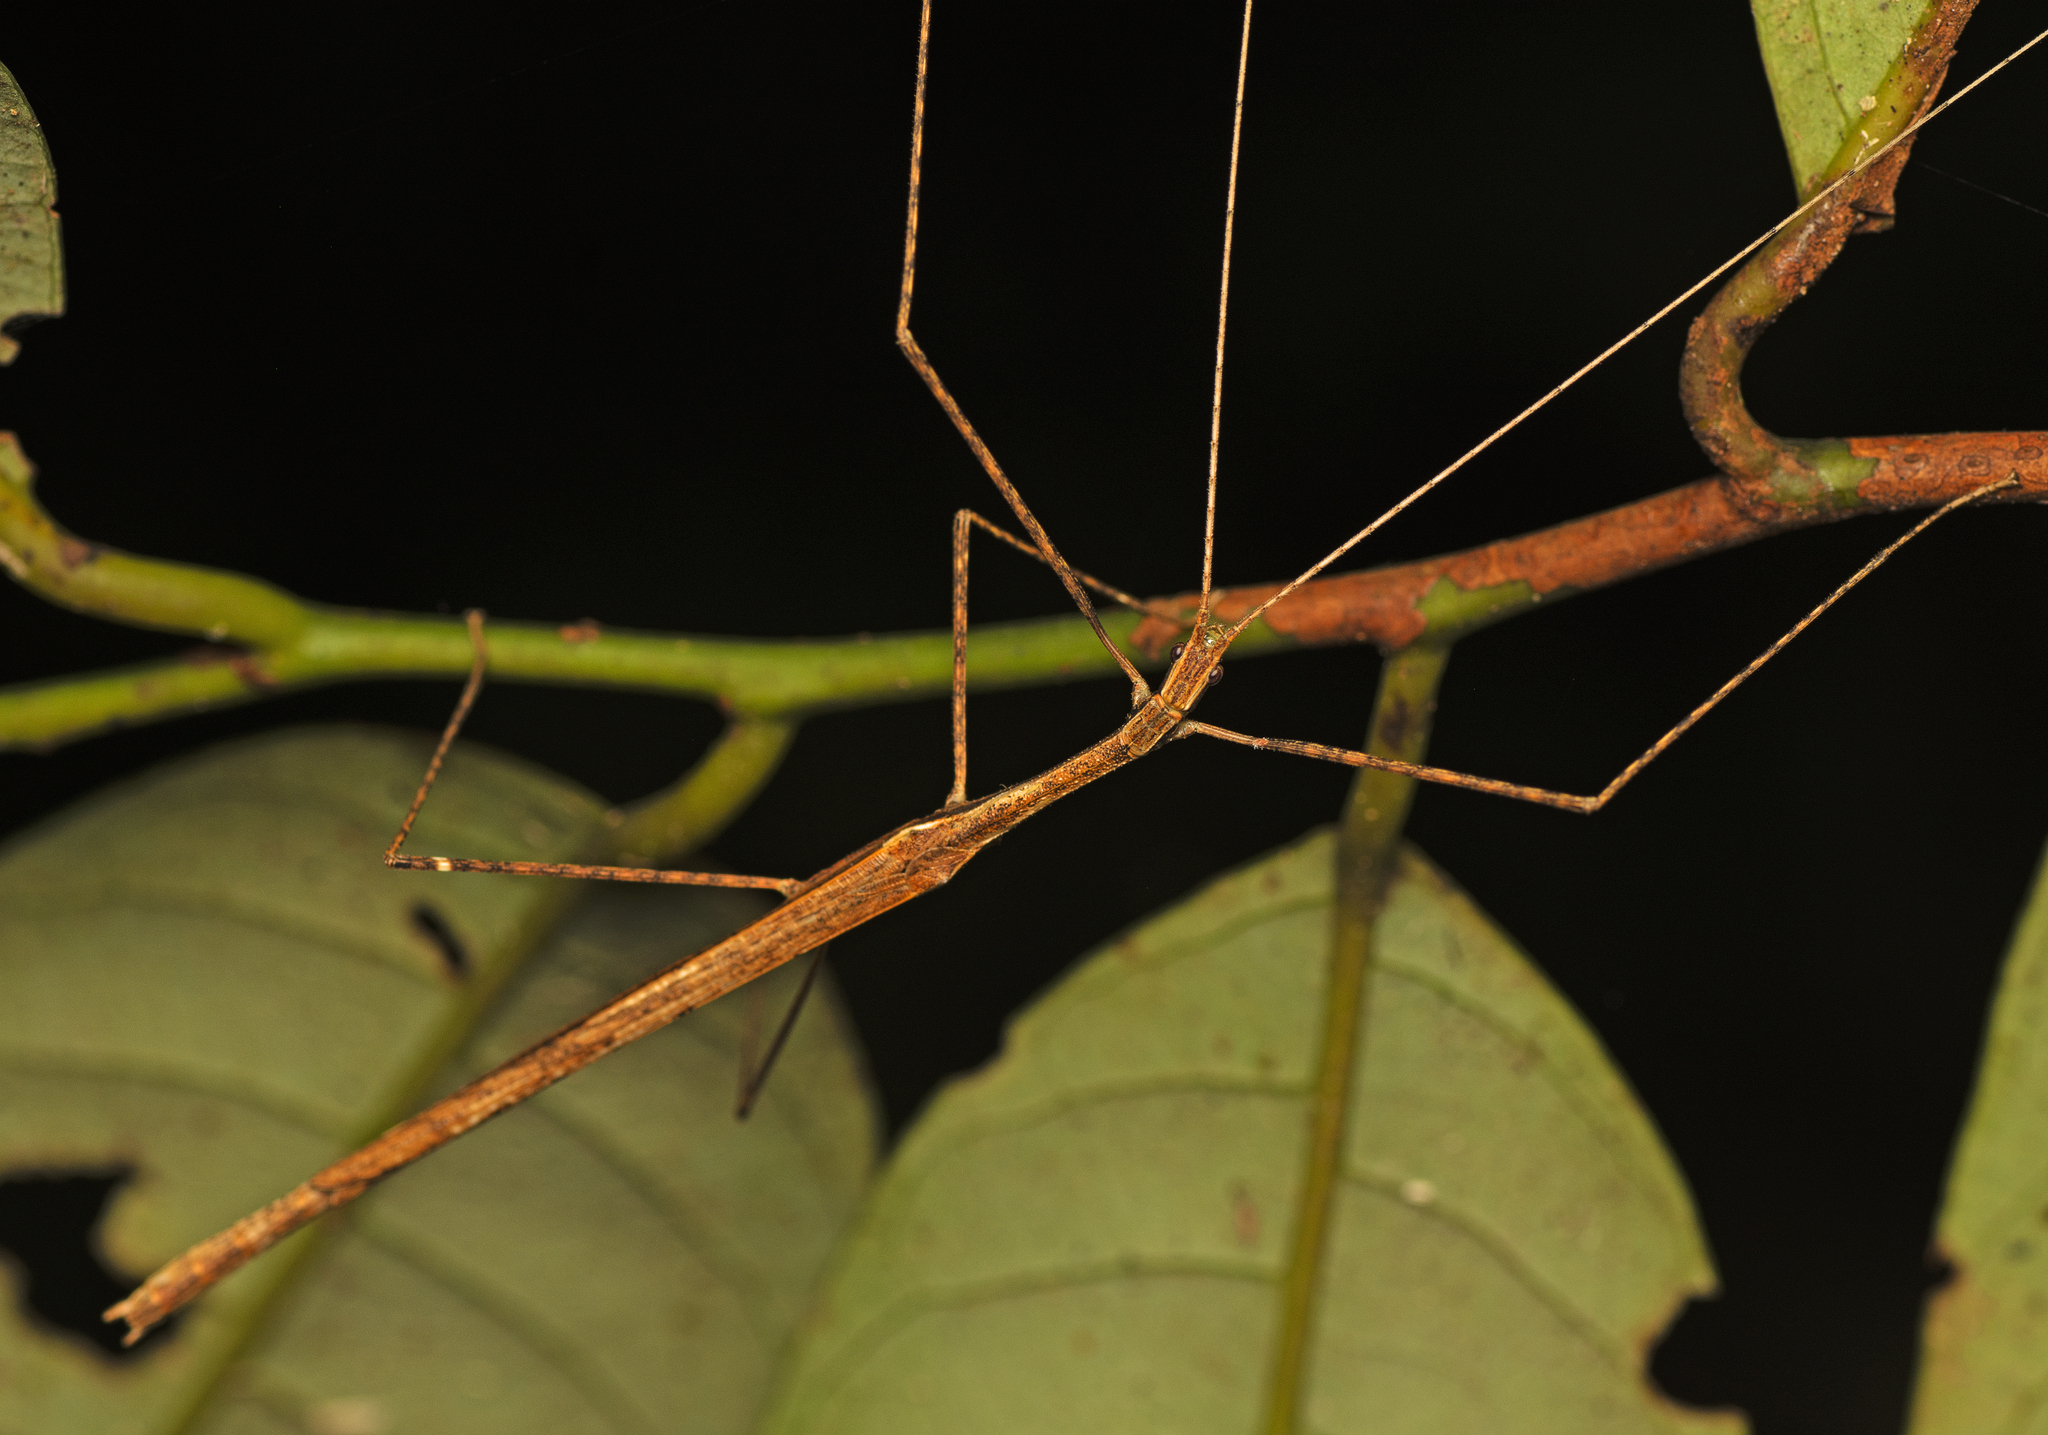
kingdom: Animalia
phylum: Arthropoda
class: Insecta
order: Phasmida
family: Lonchodidae
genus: Sipyloidea
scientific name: Sipyloidea larryi
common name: Hurricane larry stick-insect
